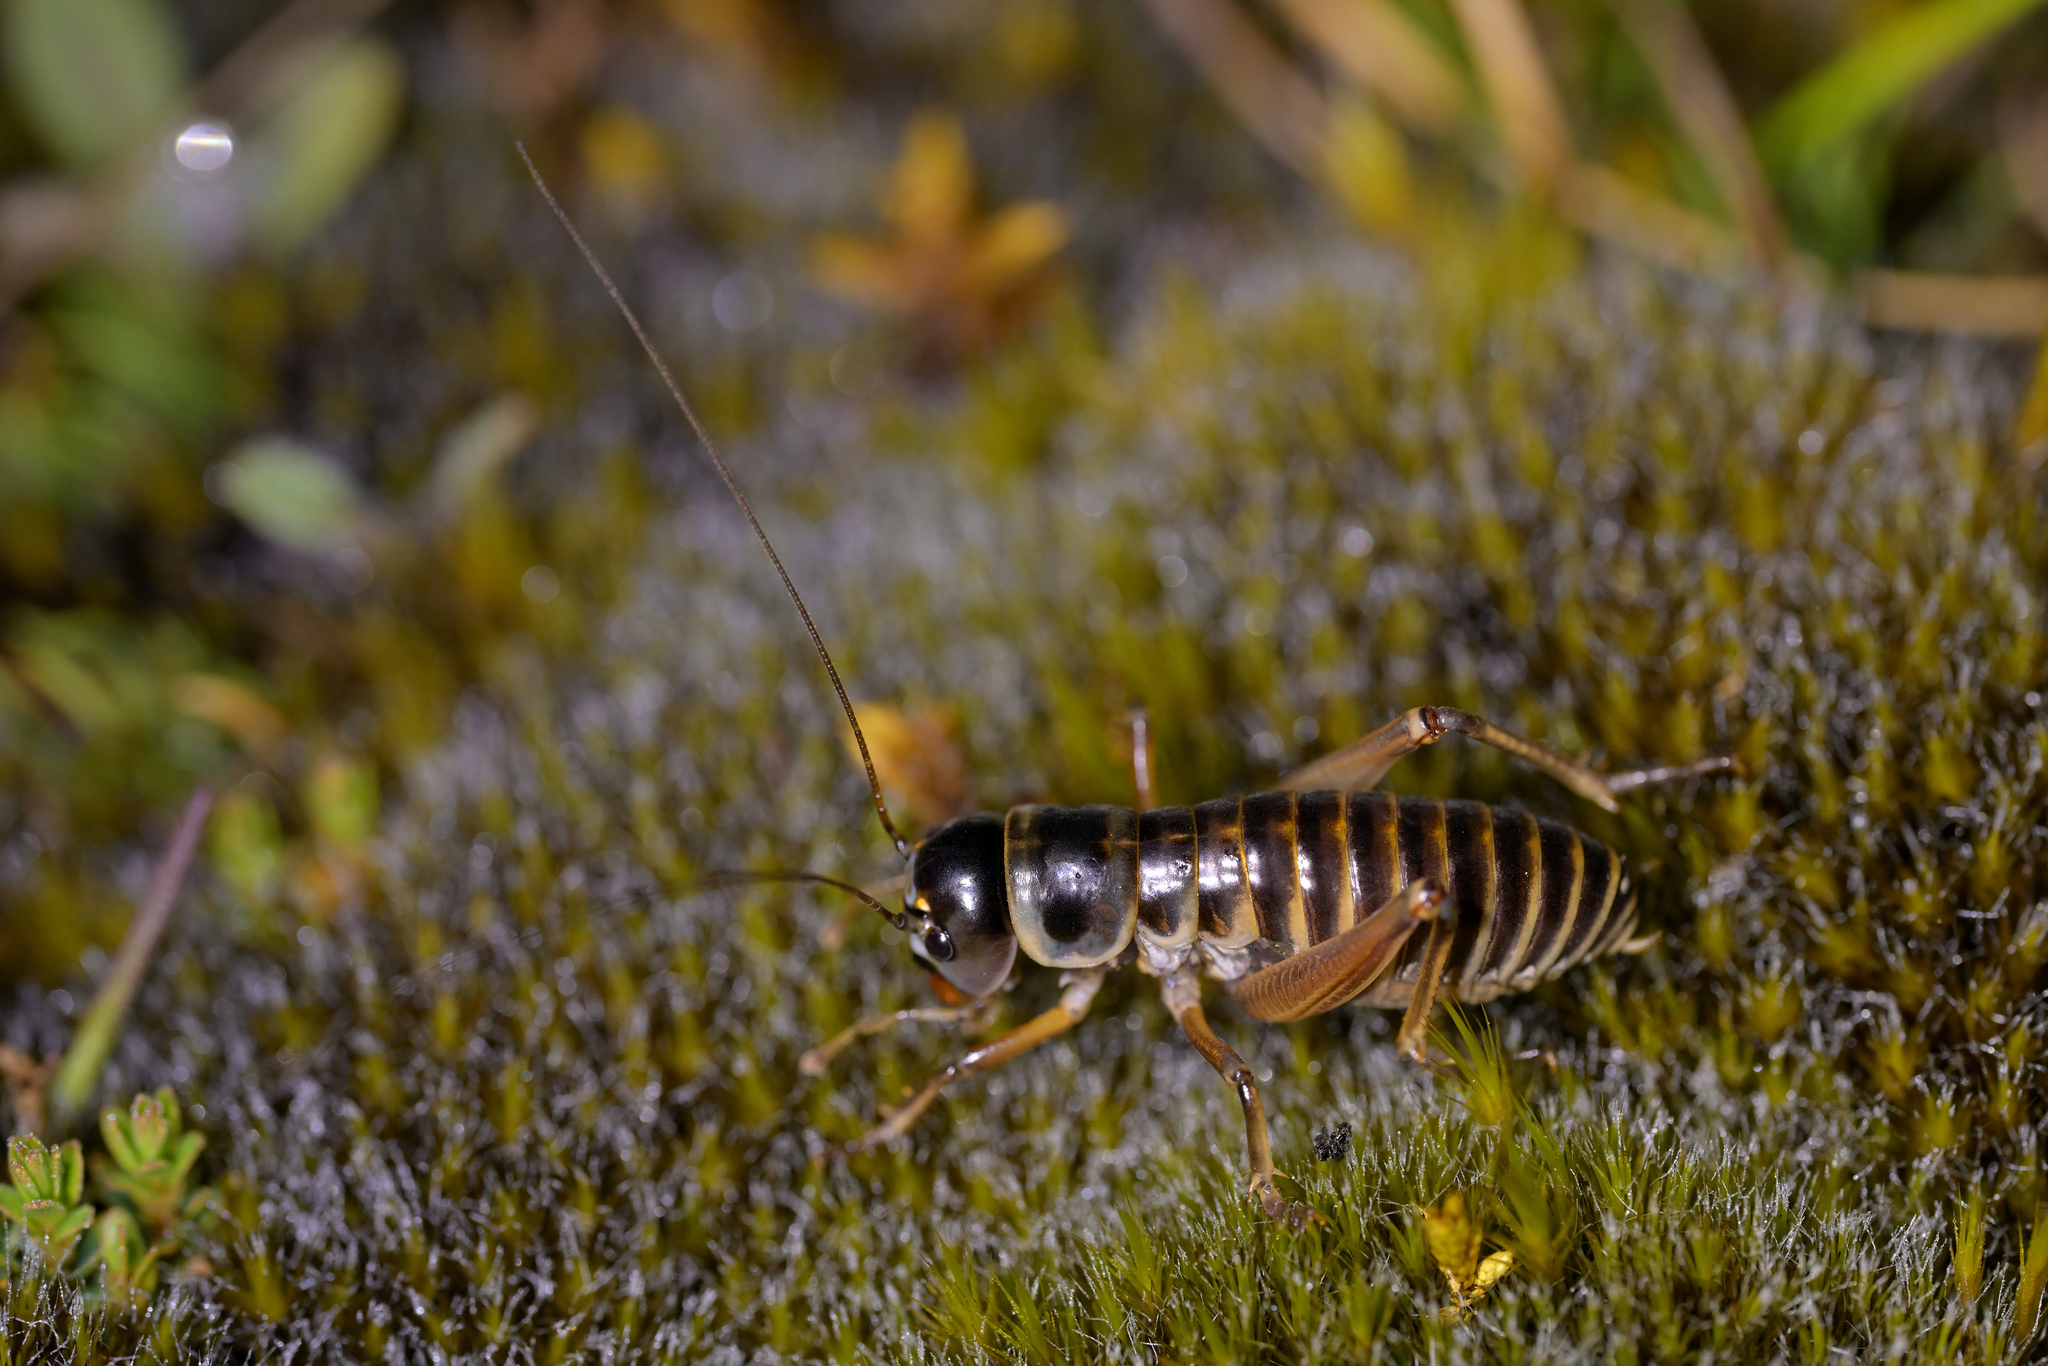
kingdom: Animalia
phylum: Arthropoda
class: Insecta
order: Orthoptera
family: Anostostomatidae
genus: Hemiandrus
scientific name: Hemiandrus focalis
